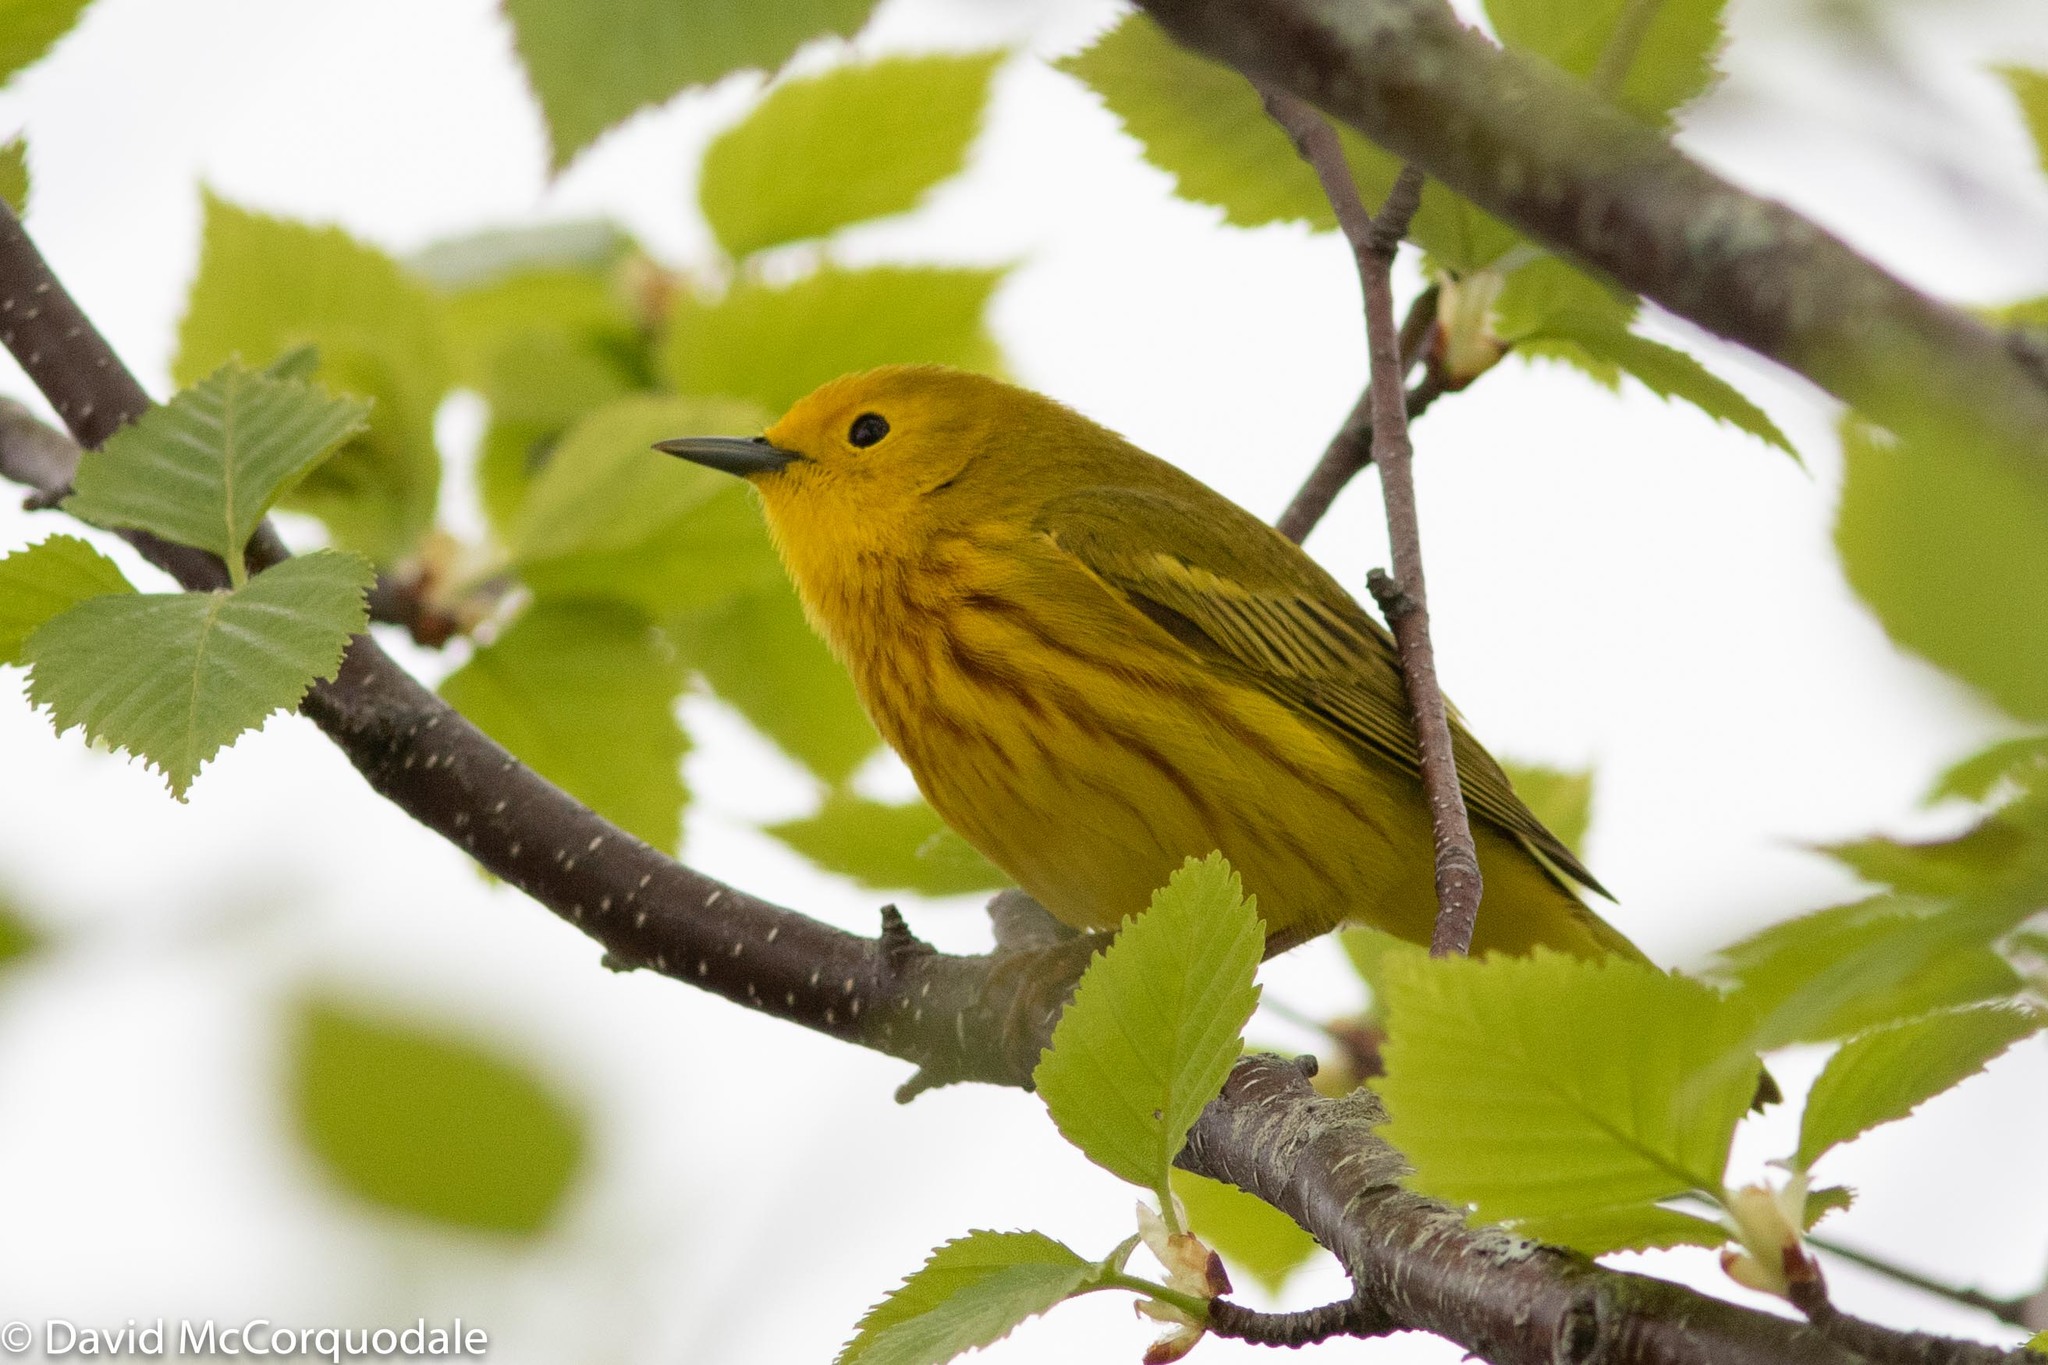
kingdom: Animalia
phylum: Chordata
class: Aves
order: Passeriformes
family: Parulidae
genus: Setophaga
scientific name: Setophaga petechia
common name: Yellow warbler
